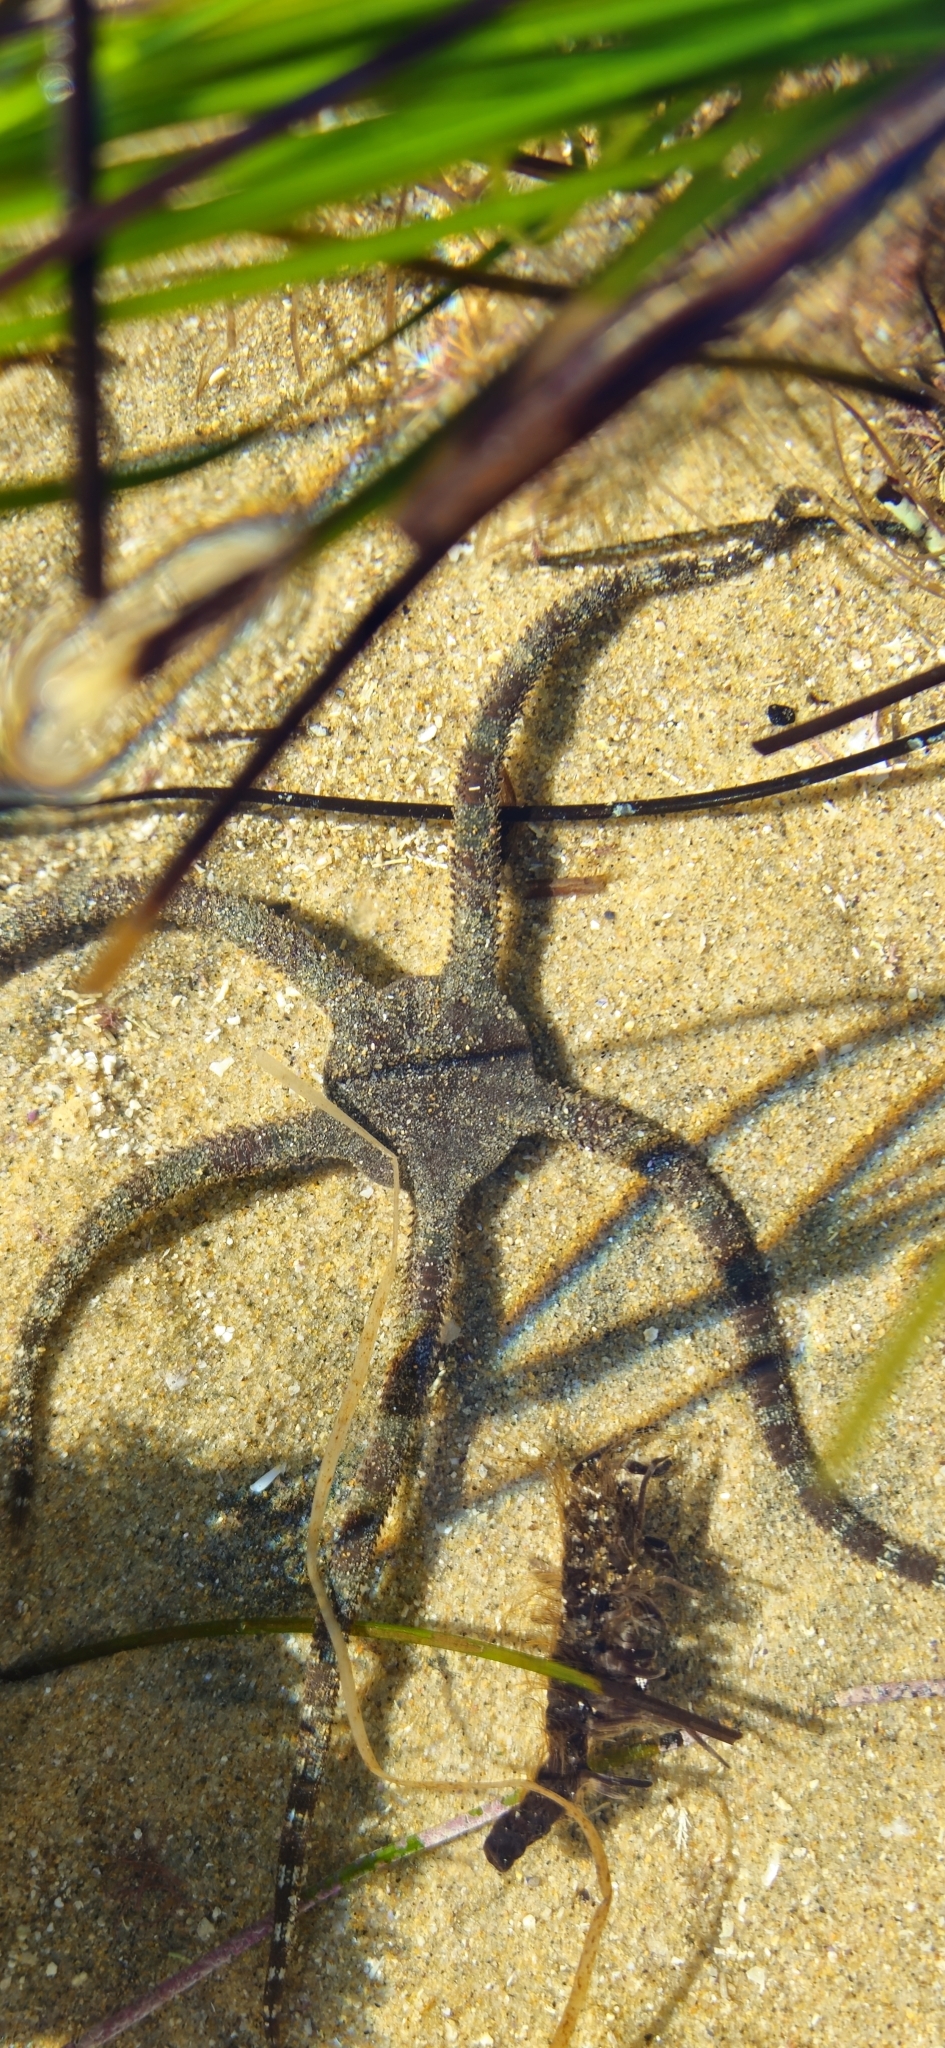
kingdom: Animalia
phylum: Echinodermata
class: Ophiuroidea
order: Ophiacanthida
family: Ophiodermatidae
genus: Ophioderma
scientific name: Ophioderma panamense
